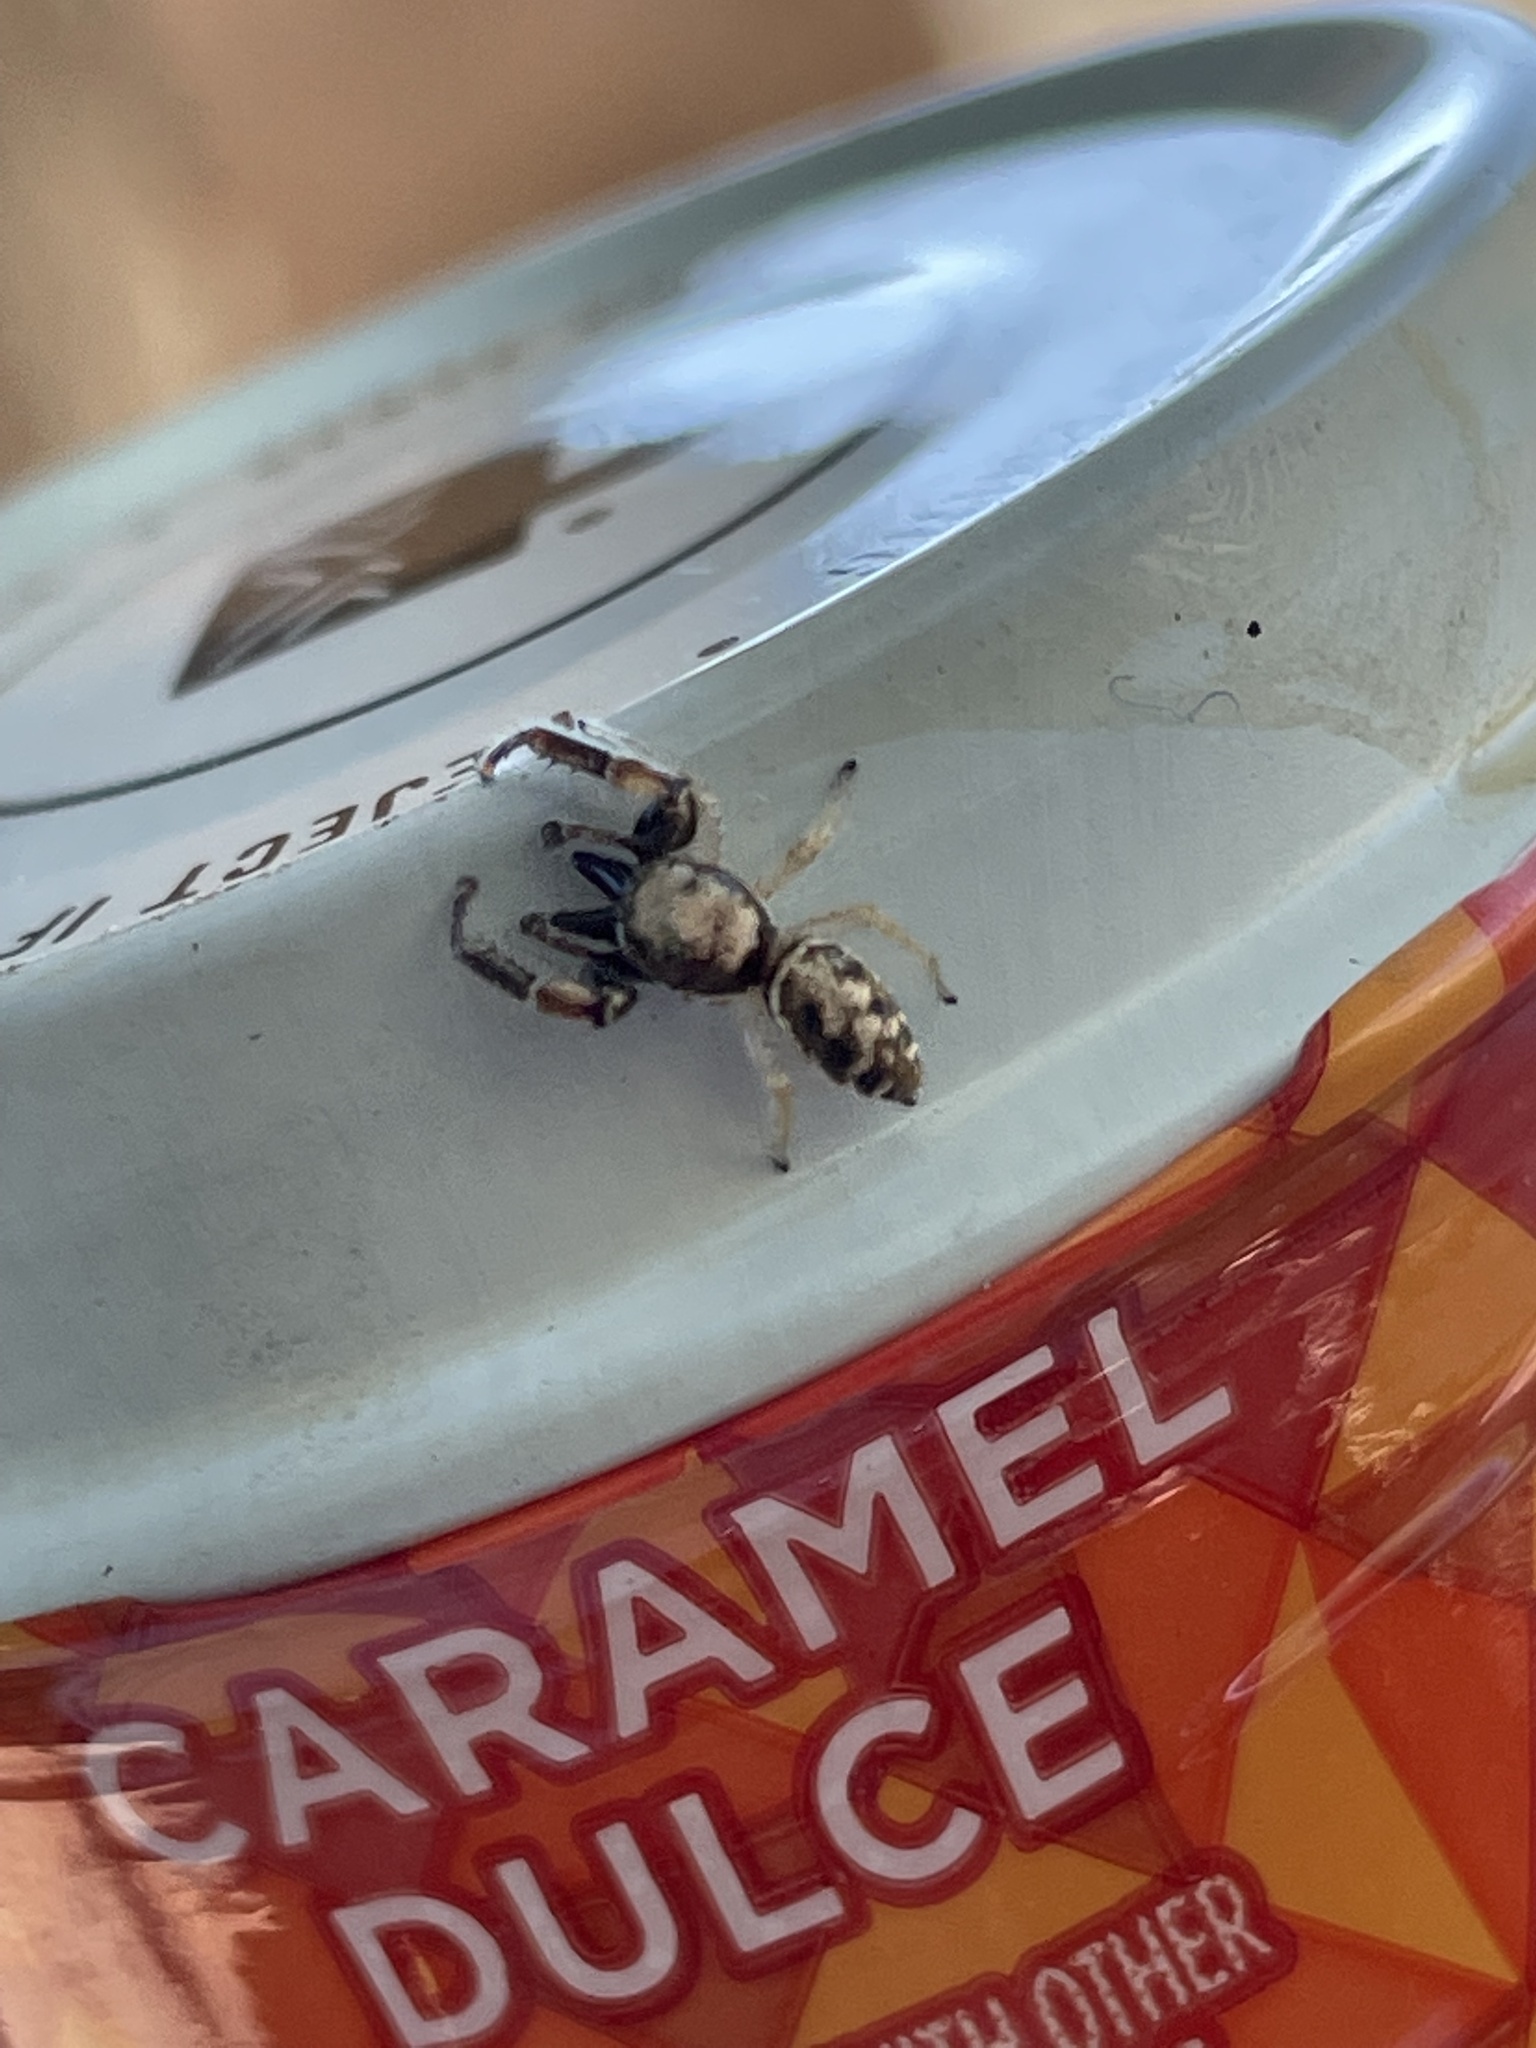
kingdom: Animalia
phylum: Arthropoda
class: Arachnida
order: Araneae
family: Salticidae
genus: Metaphidippus
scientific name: Metaphidippus siticulosus
